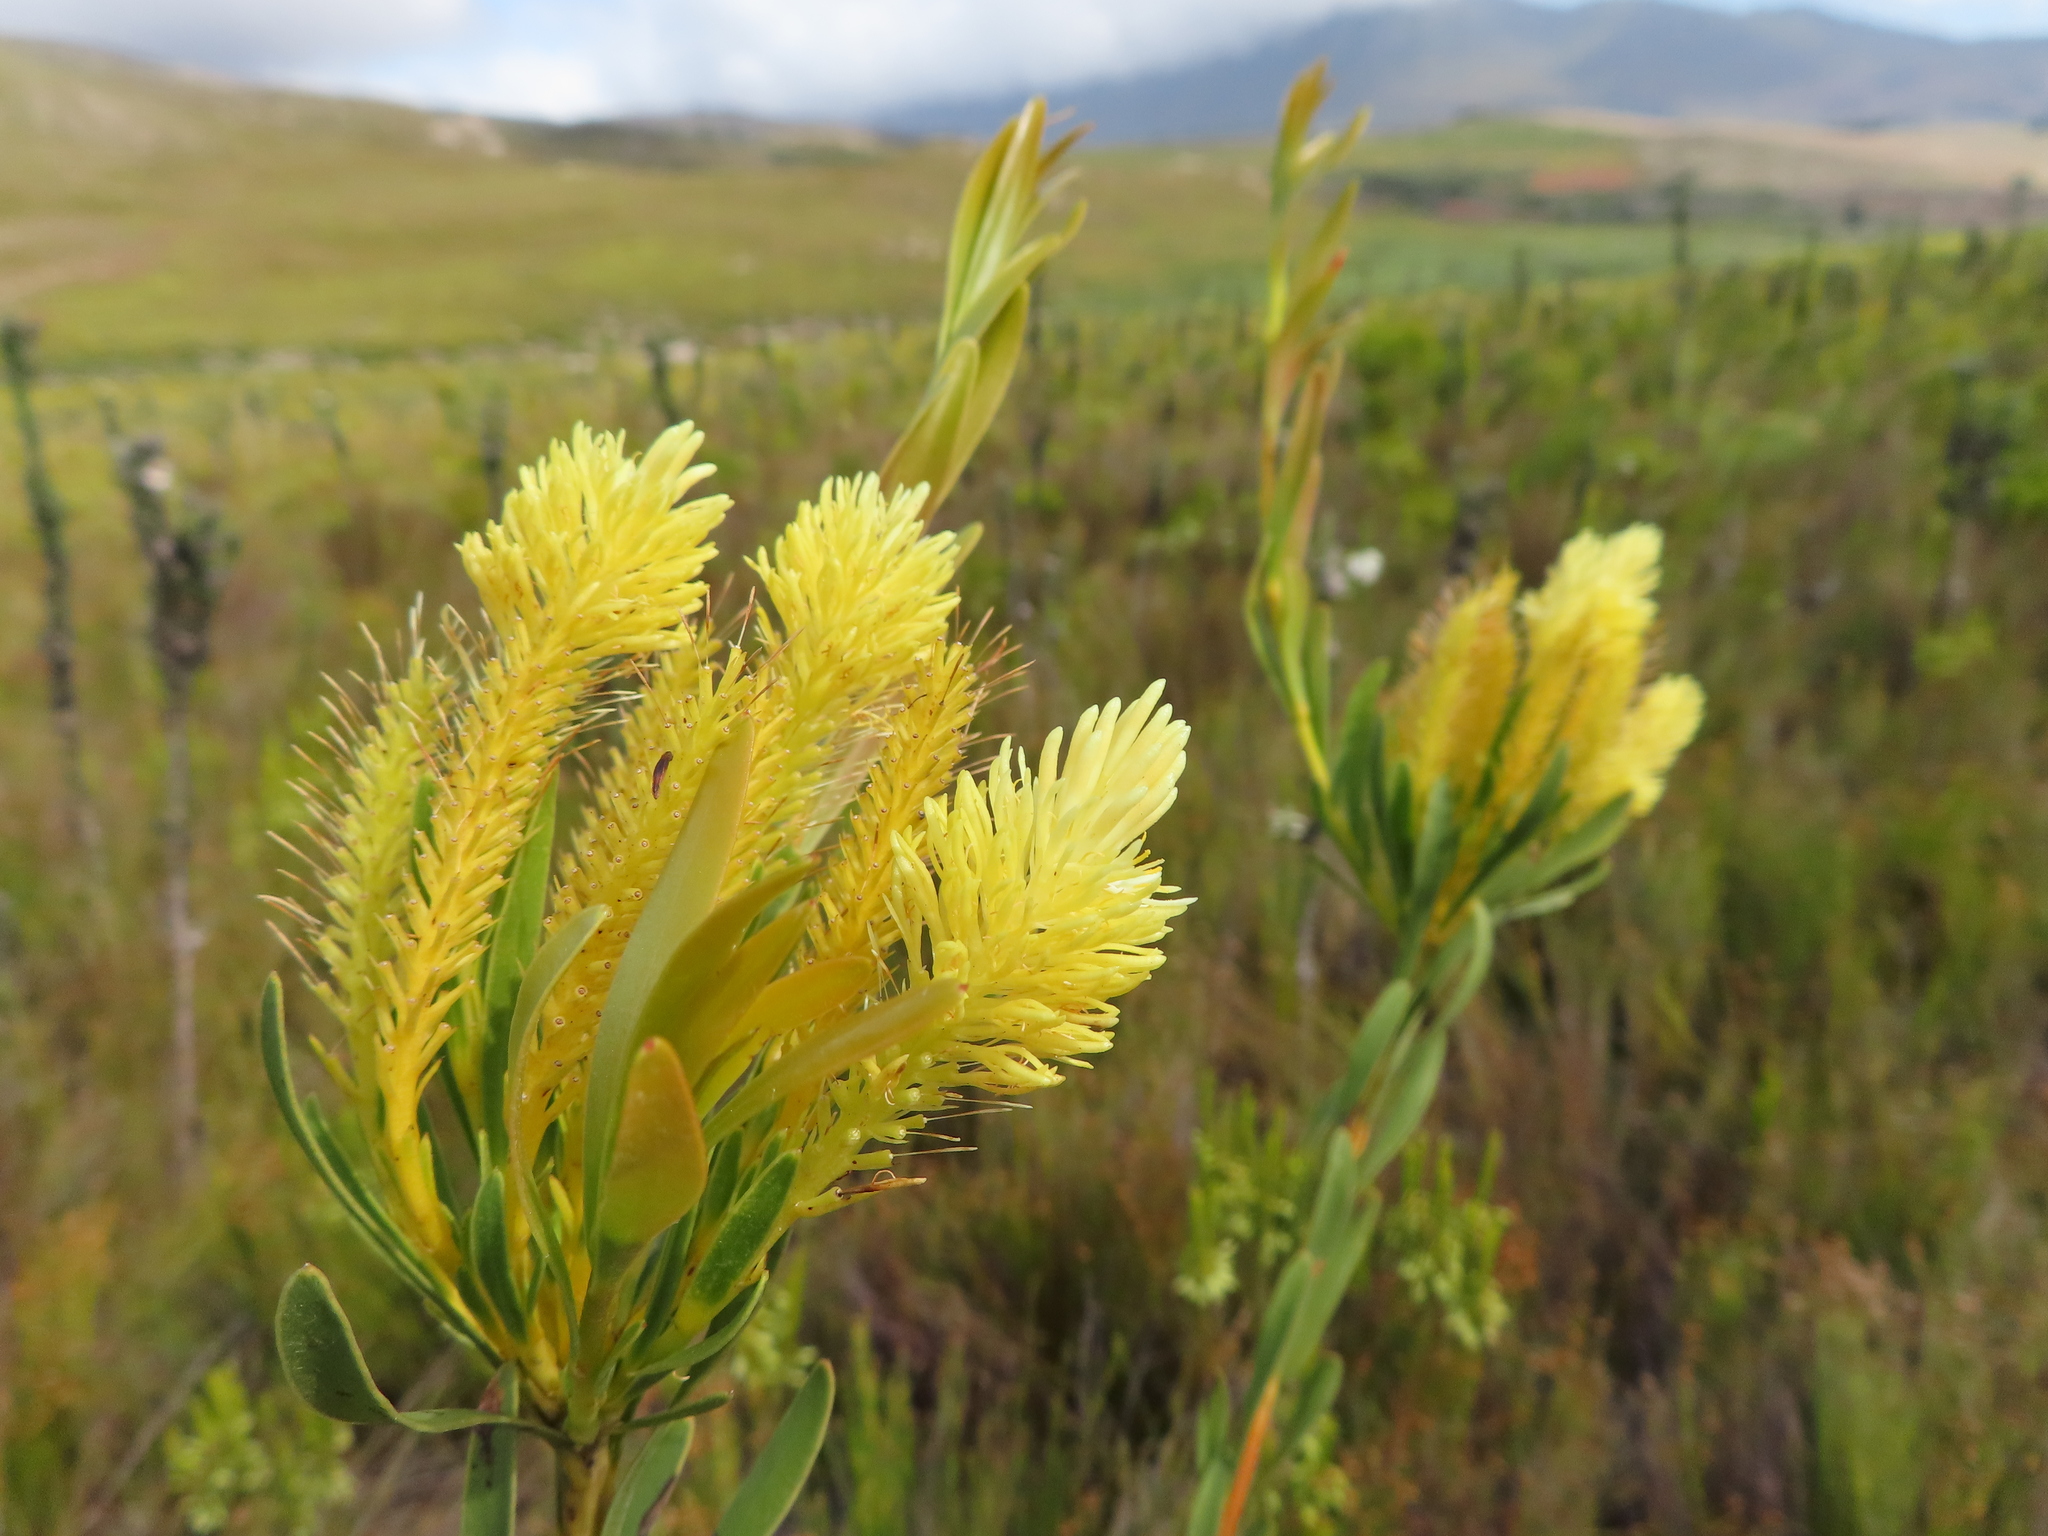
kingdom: Plantae
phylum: Tracheophyta
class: Magnoliopsida
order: Proteales
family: Proteaceae
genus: Aulax
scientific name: Aulax umbellata
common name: Broad-leaf featherbush
